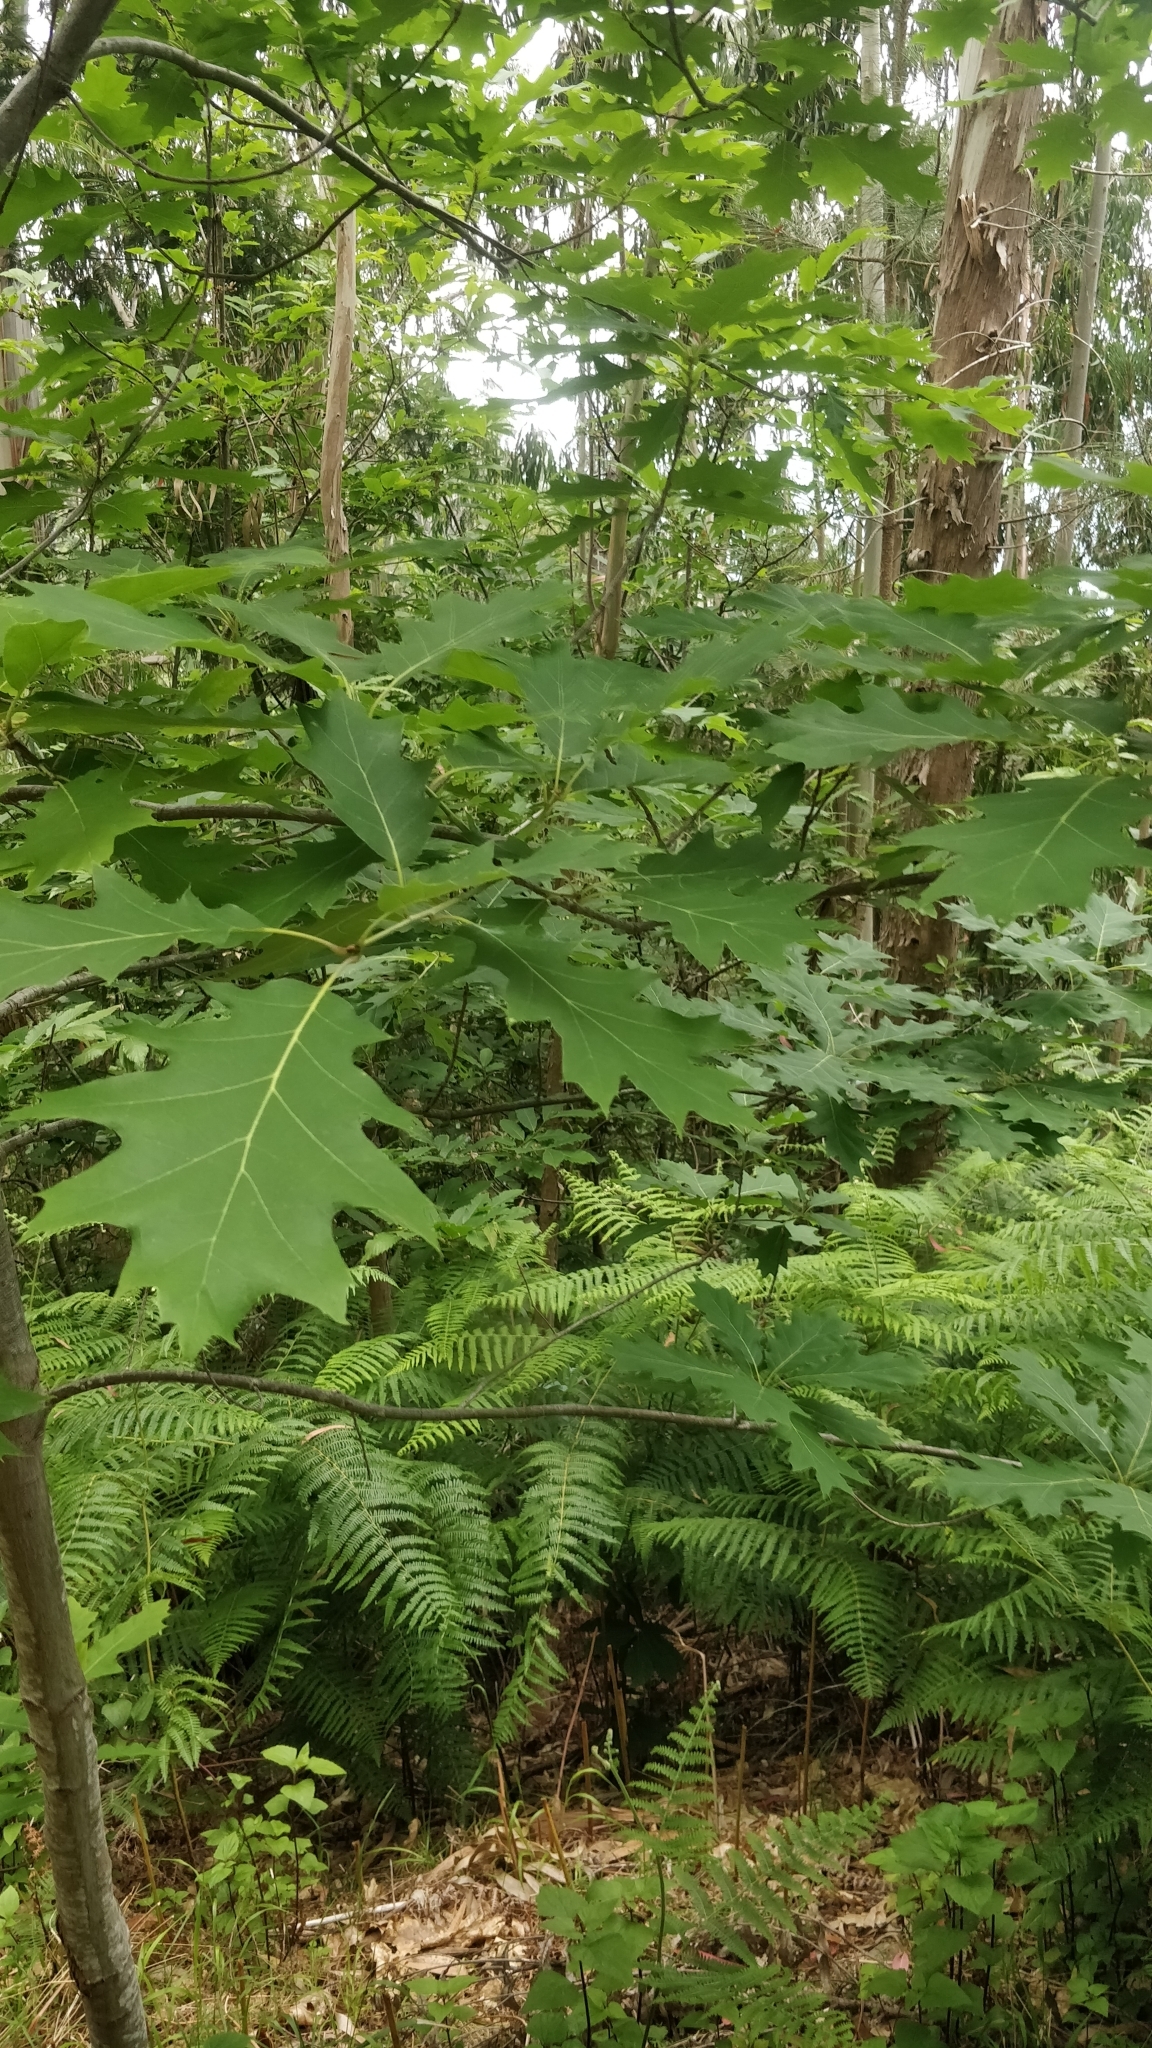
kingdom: Plantae
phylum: Tracheophyta
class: Magnoliopsida
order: Fagales
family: Fagaceae
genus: Quercus
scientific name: Quercus rubra
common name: Red oak
